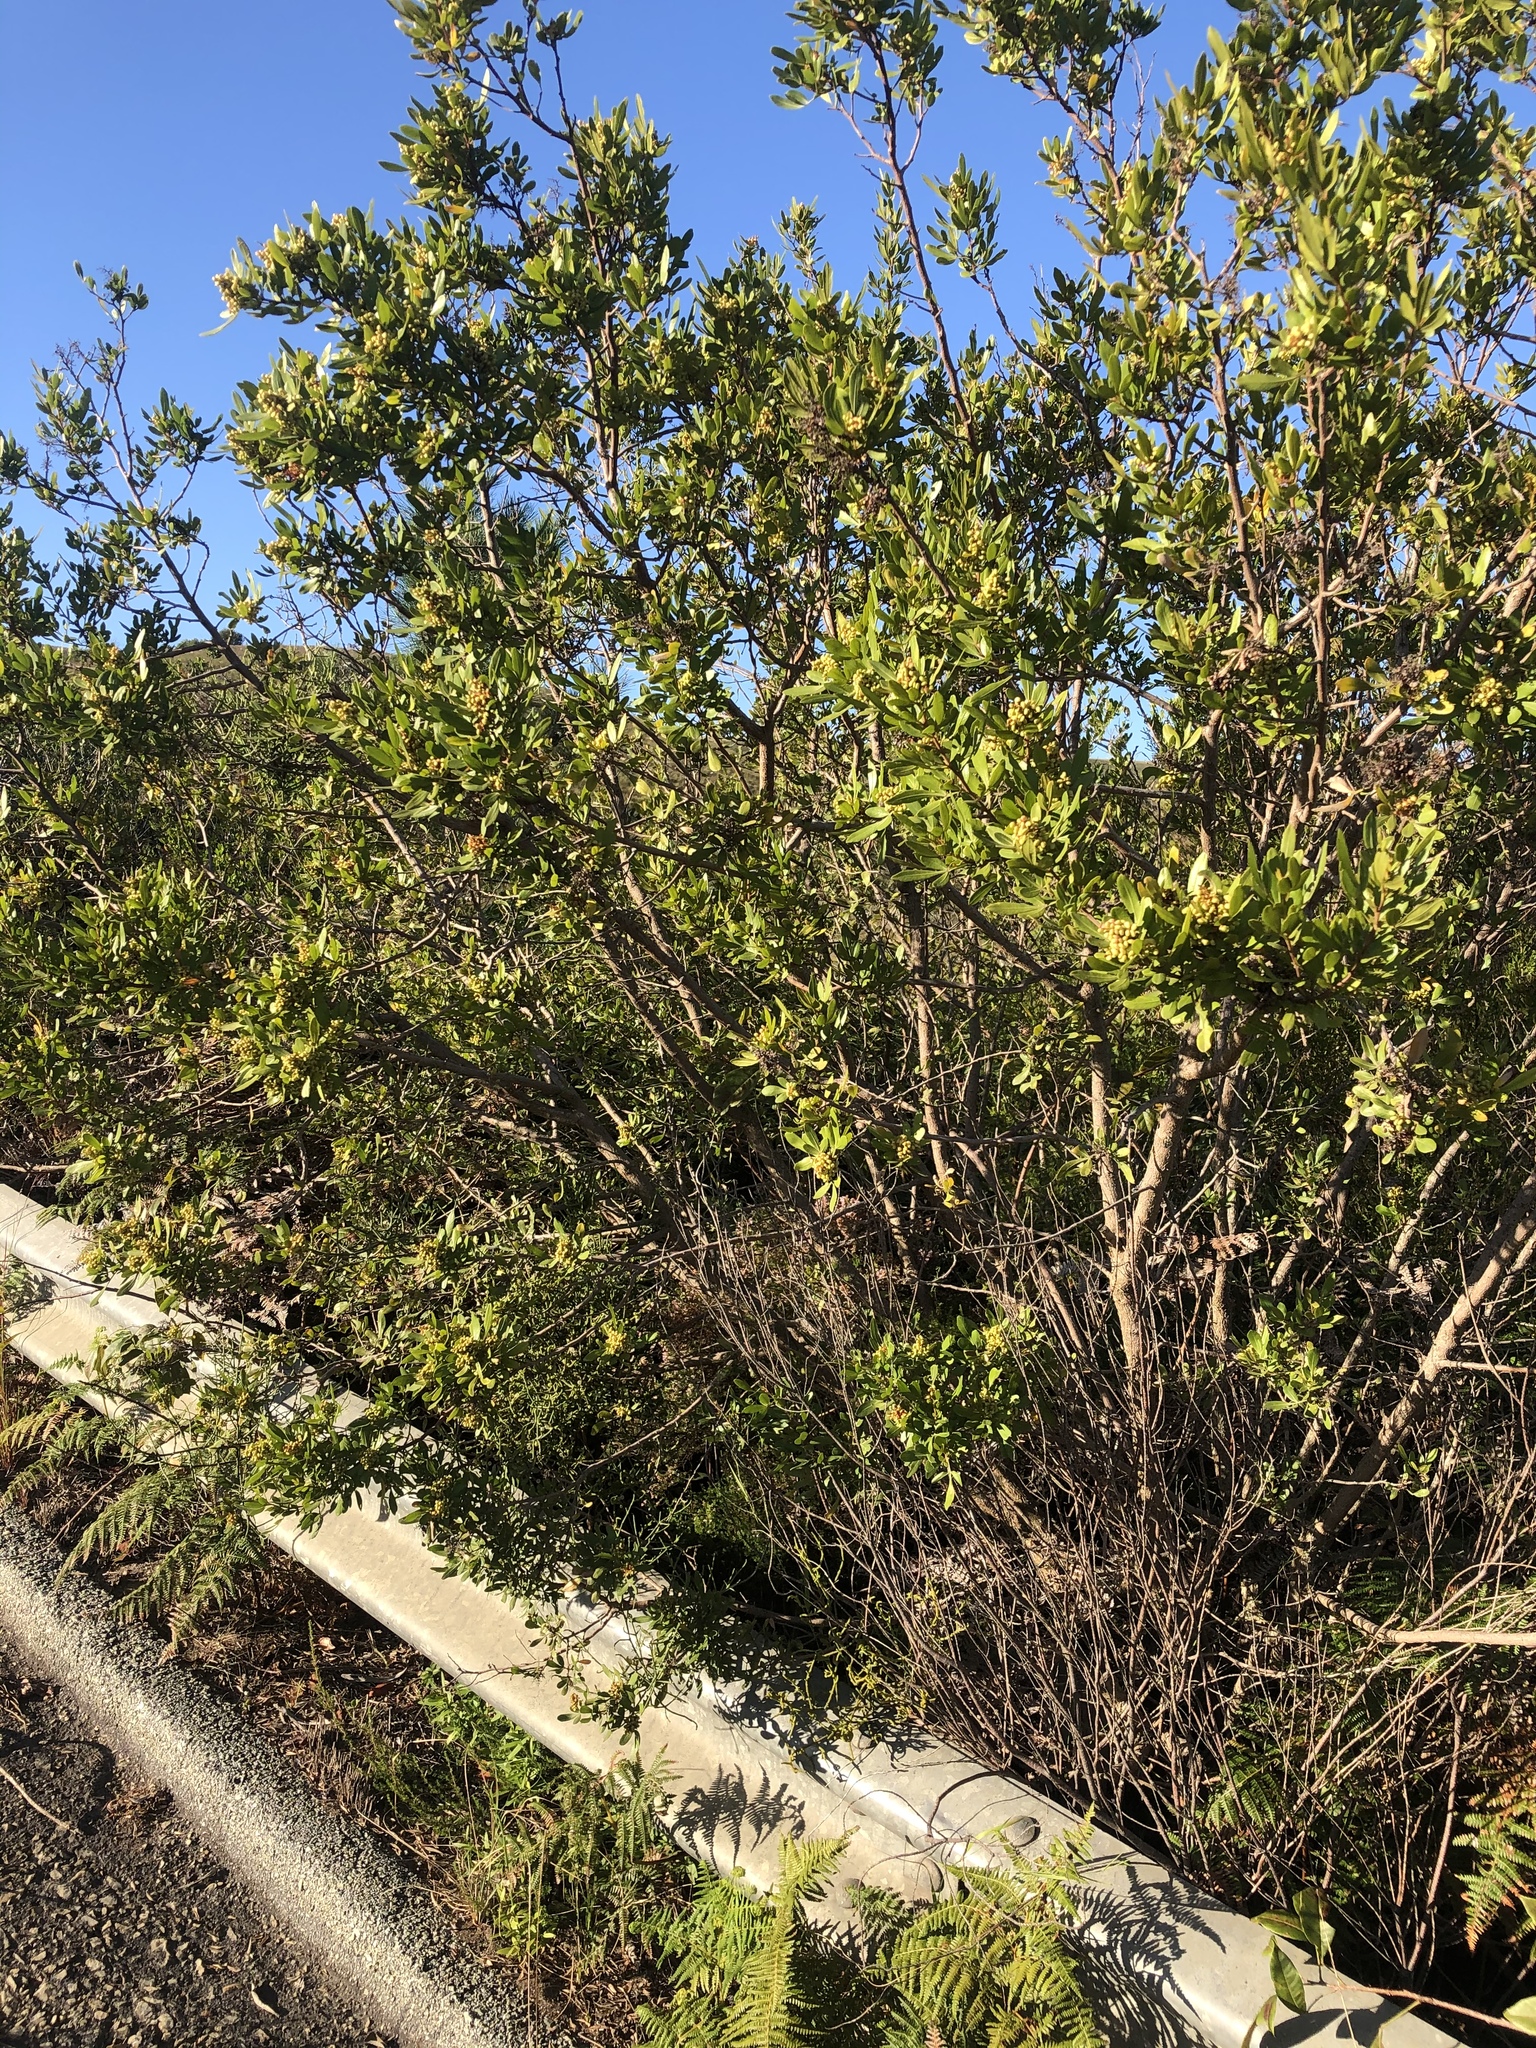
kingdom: Plantae
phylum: Tracheophyta
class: Magnoliopsida
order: Sapindales
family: Anacardiaceae
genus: Searsia
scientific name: Searsia lucida
